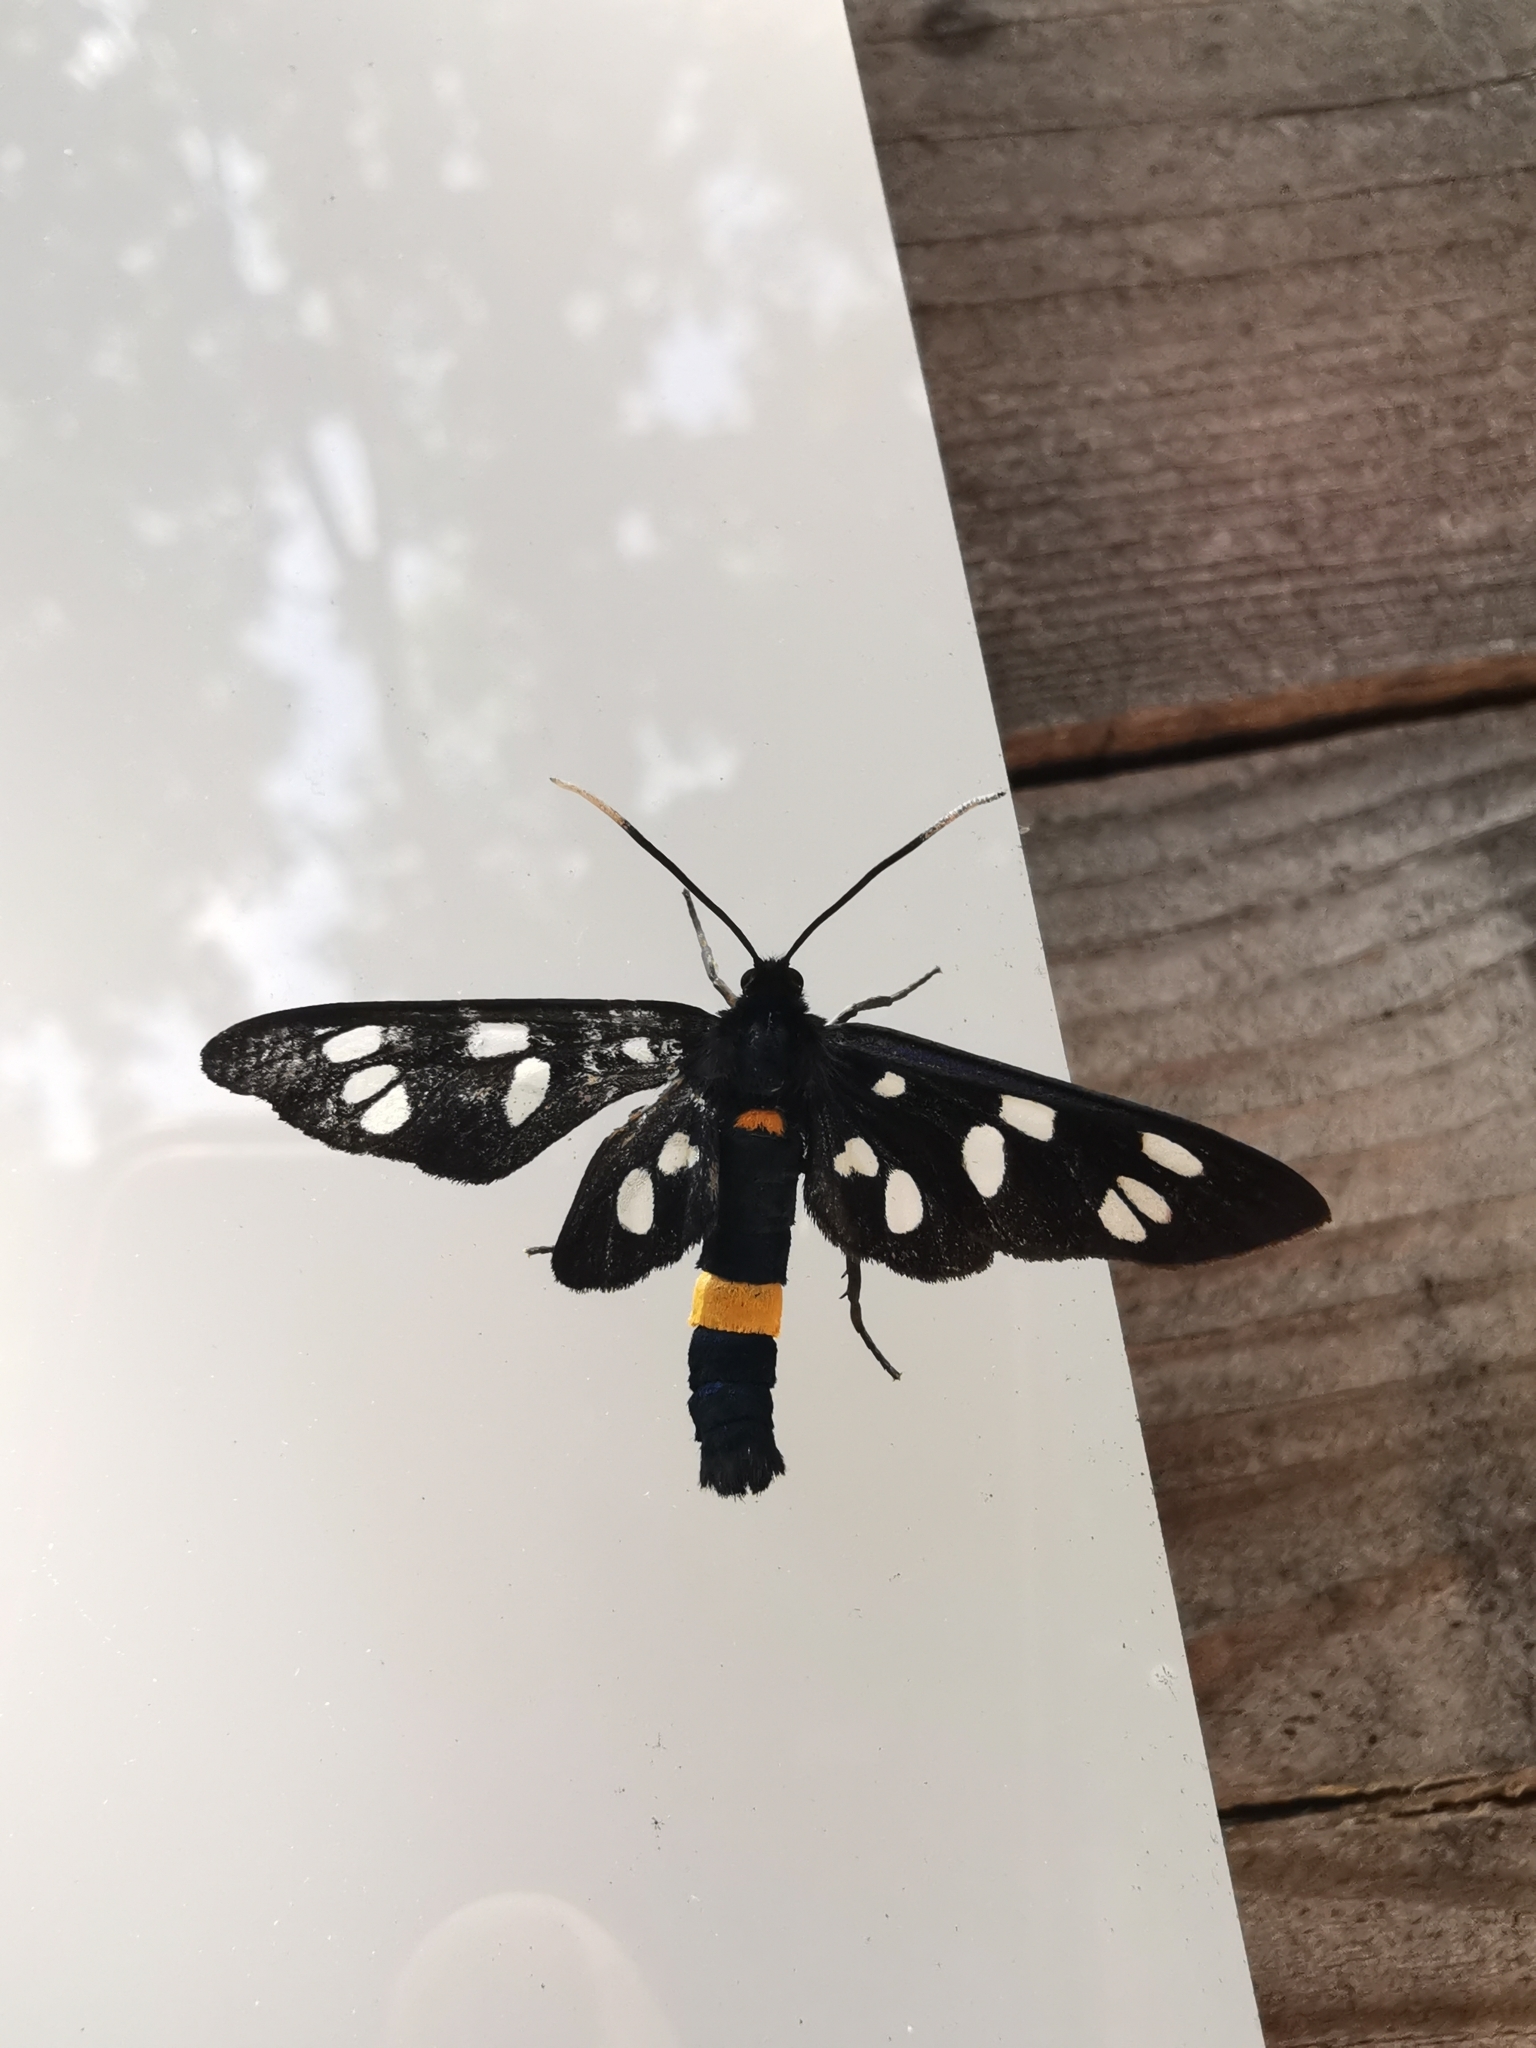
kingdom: Animalia
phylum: Arthropoda
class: Insecta
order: Lepidoptera
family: Erebidae
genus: Amata
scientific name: Amata phegea
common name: Nine-spotted
